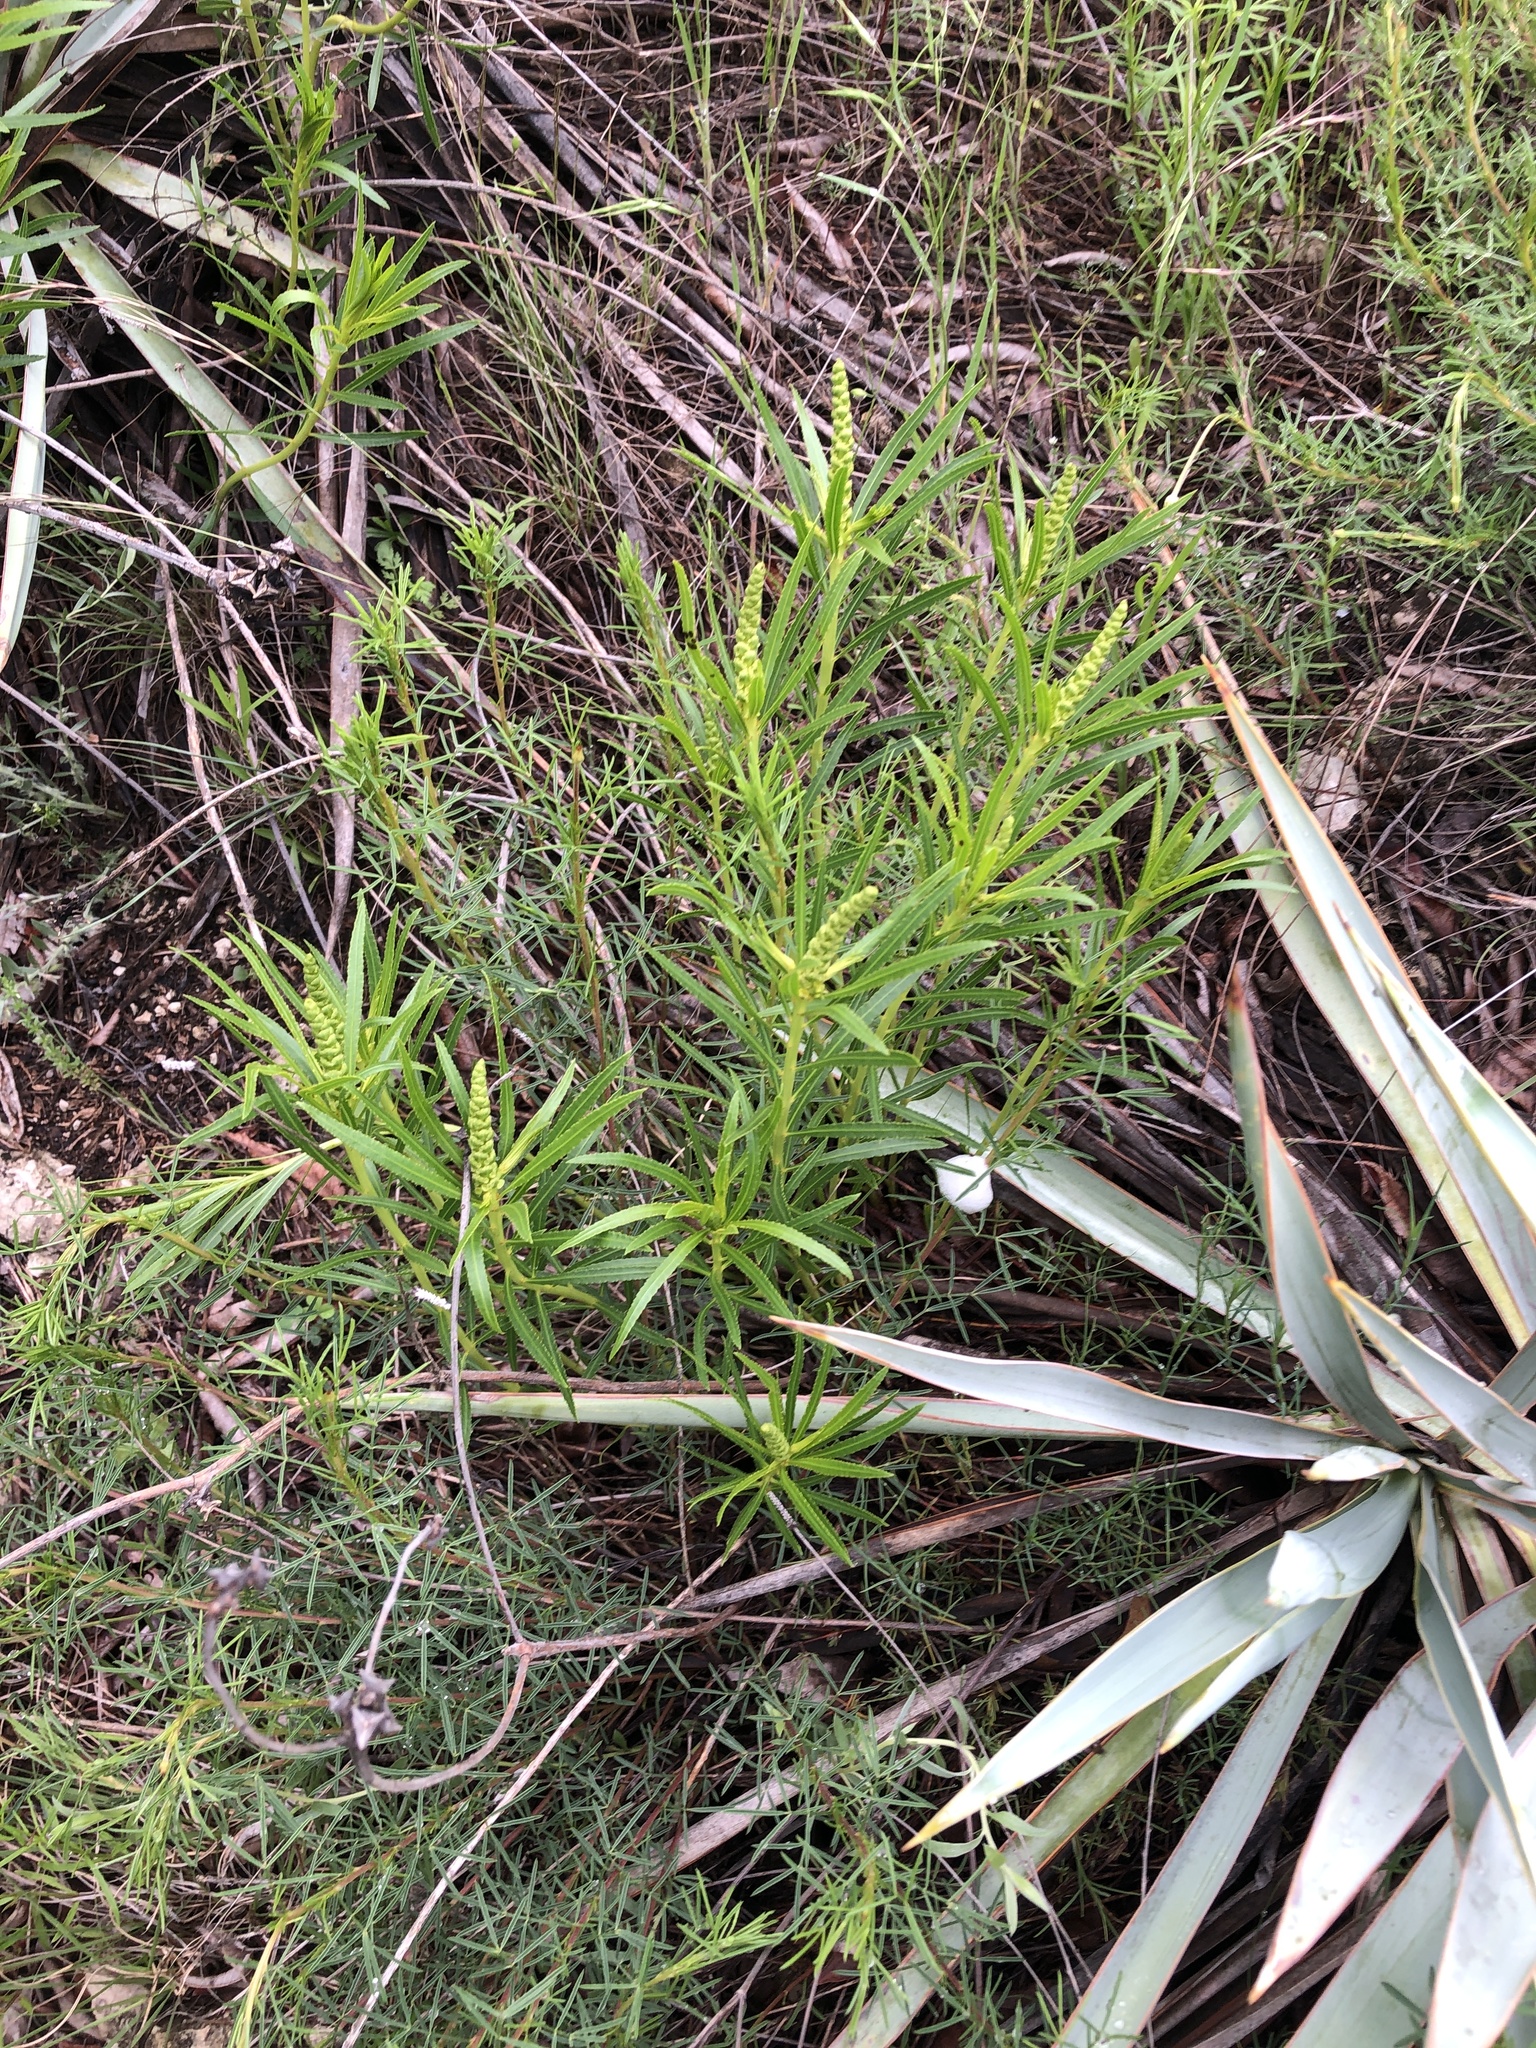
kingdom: Plantae
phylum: Tracheophyta
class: Magnoliopsida
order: Malpighiales
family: Euphorbiaceae
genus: Stillingia
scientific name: Stillingia texana
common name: Texas stillingia
